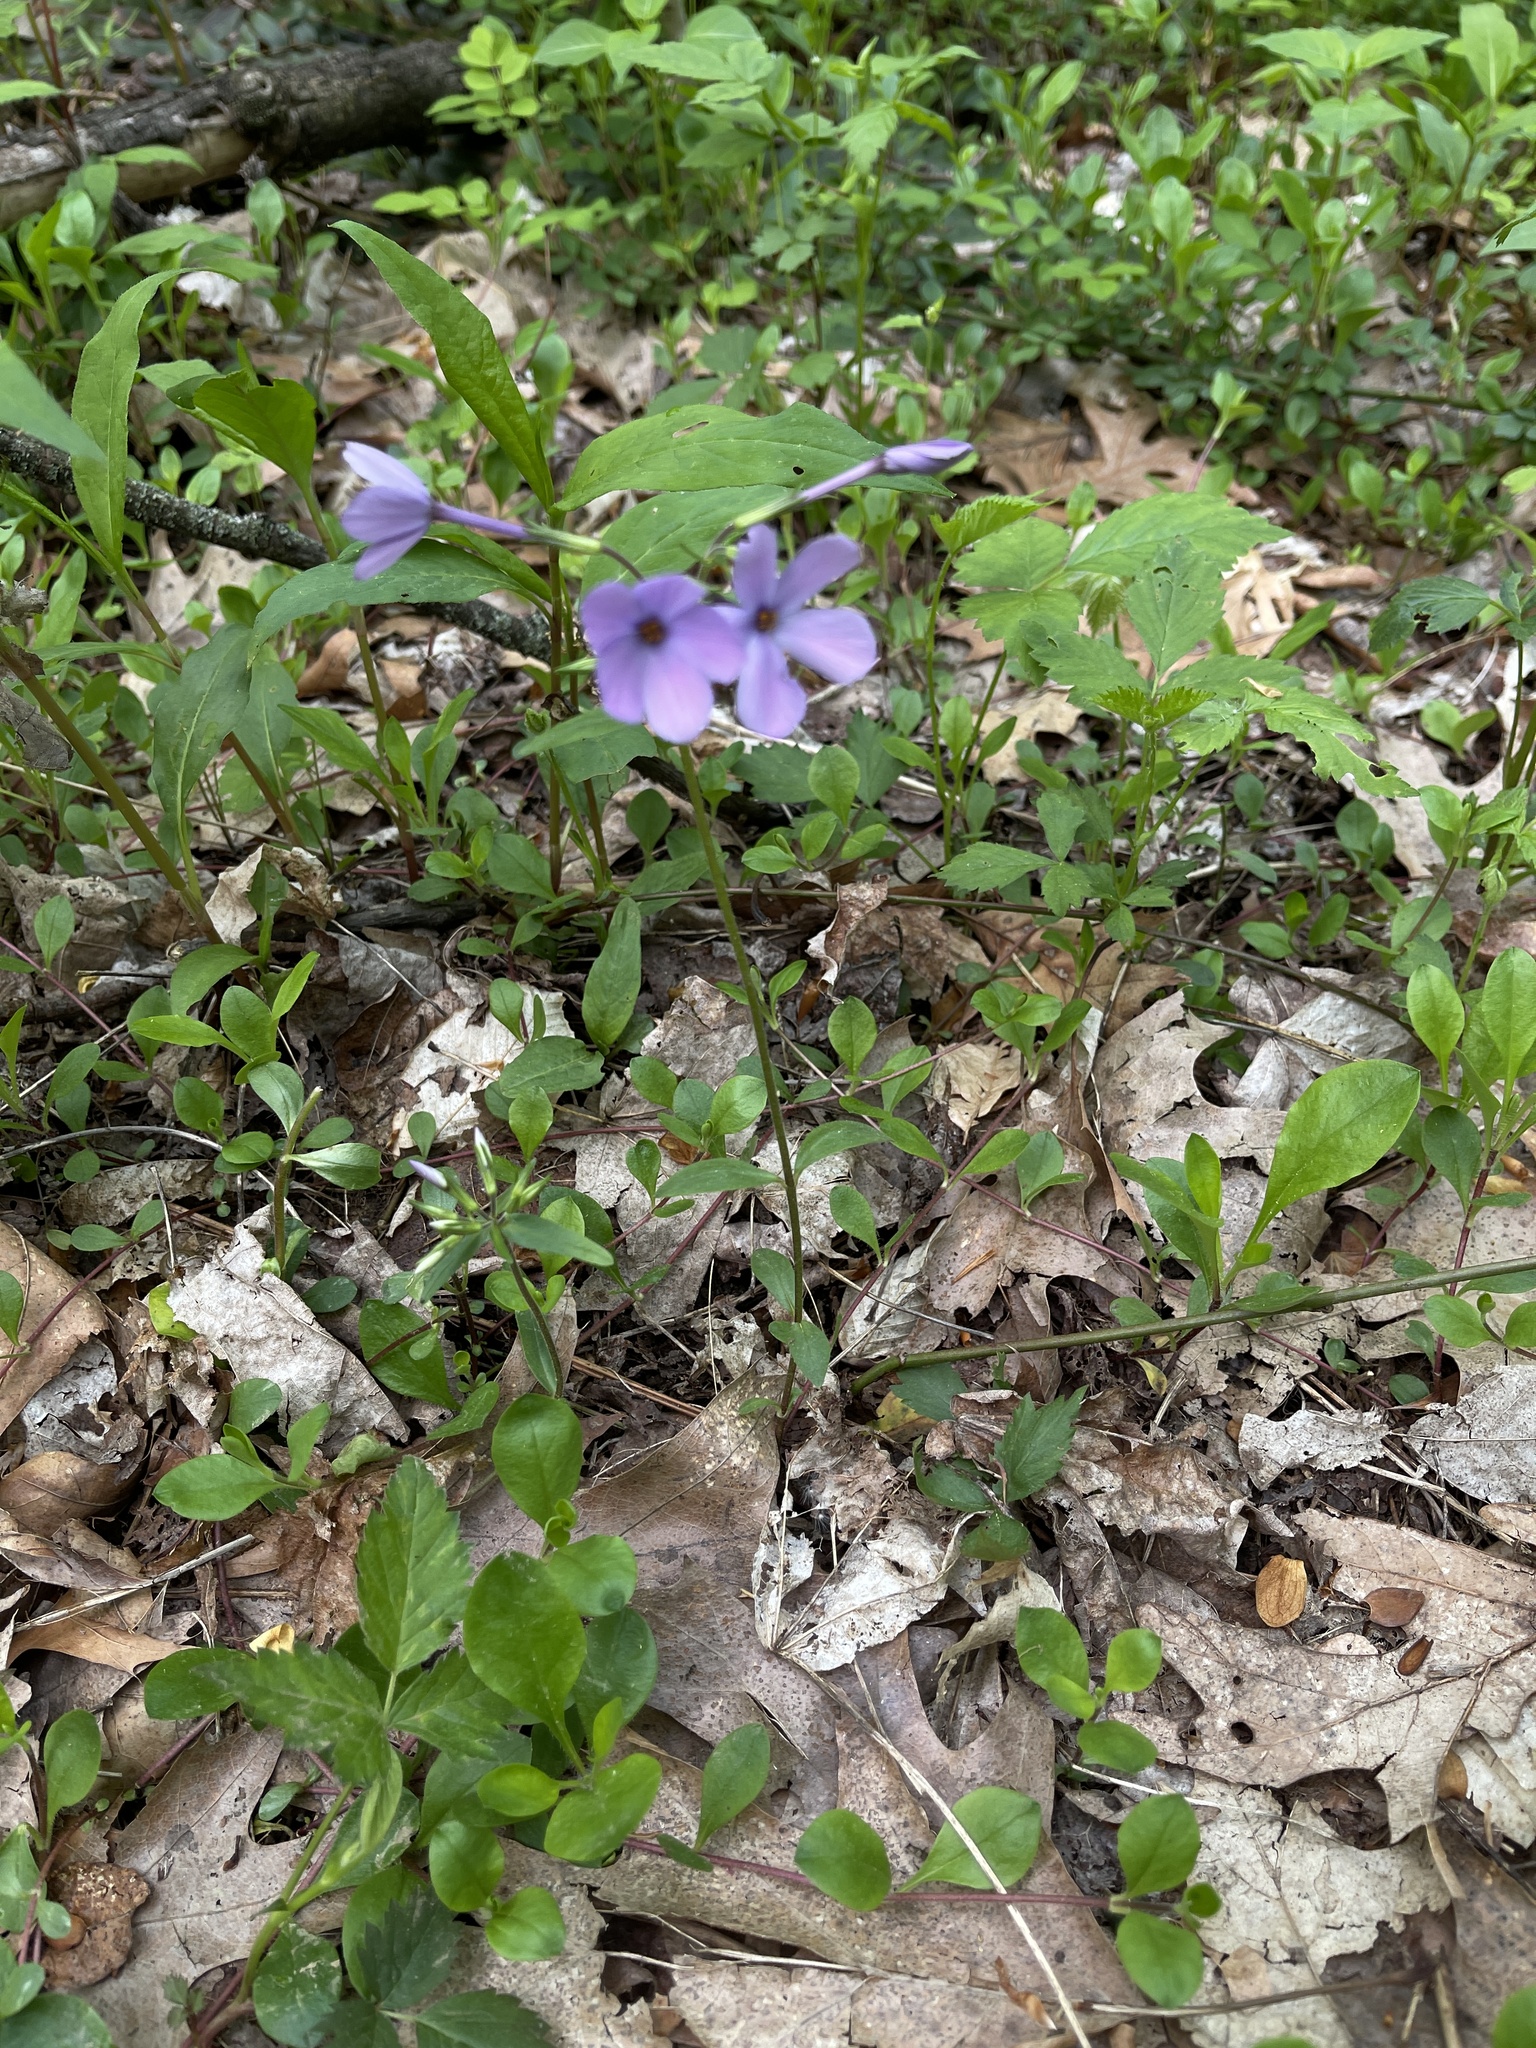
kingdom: Plantae
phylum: Tracheophyta
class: Magnoliopsida
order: Ericales
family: Polemoniaceae
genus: Phlox
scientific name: Phlox stolonifera
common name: Creeping phlox
